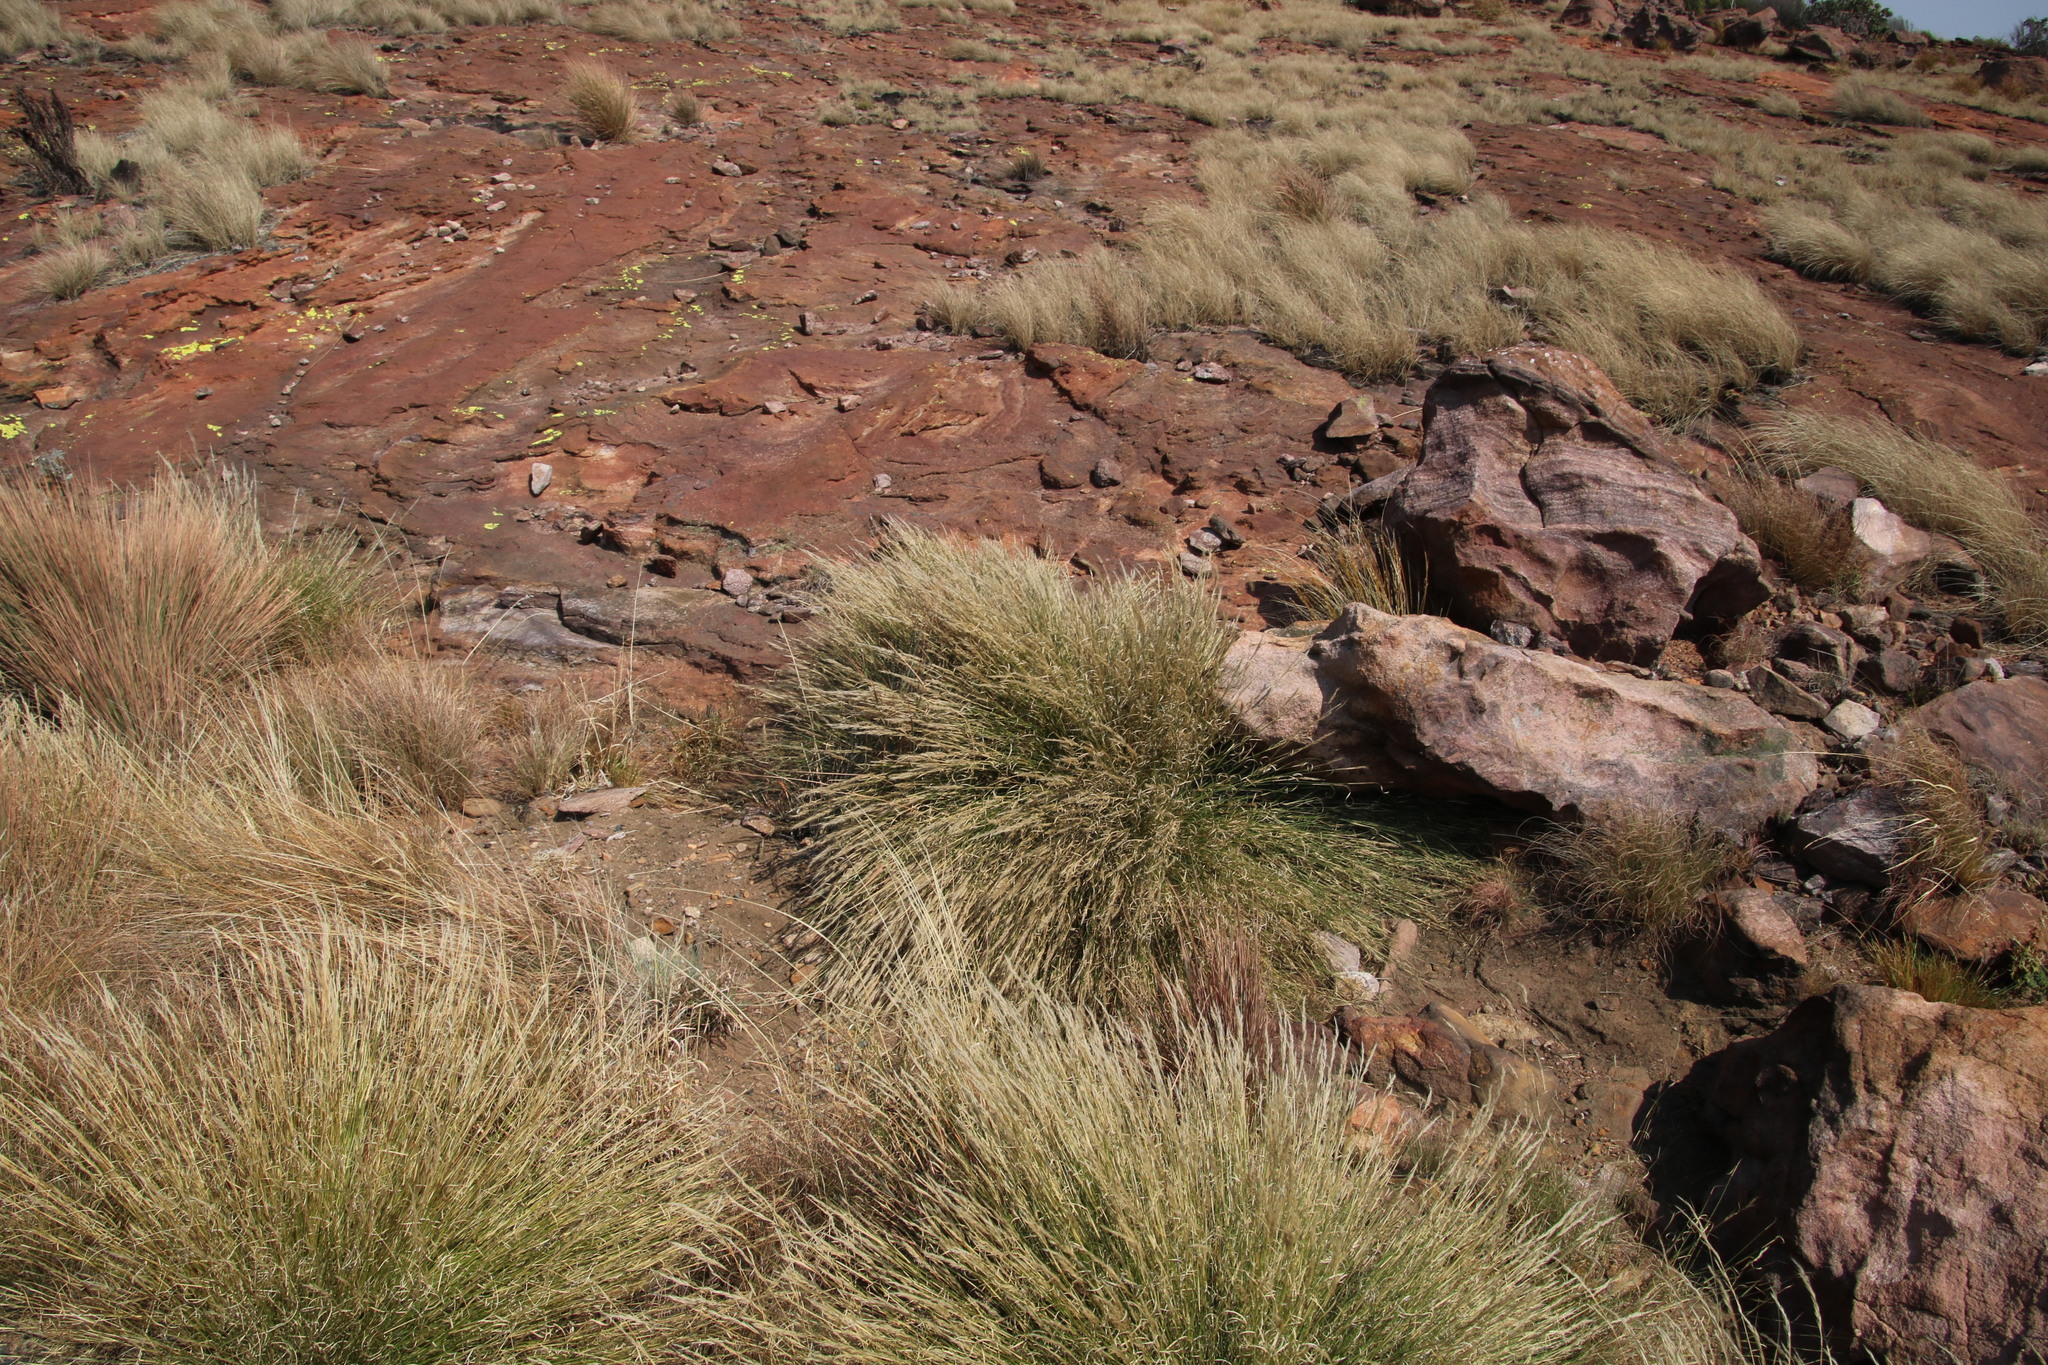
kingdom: Plantae
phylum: Tracheophyta
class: Liliopsida
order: Poales
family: Poaceae
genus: Aristida
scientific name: Aristida junciformis
